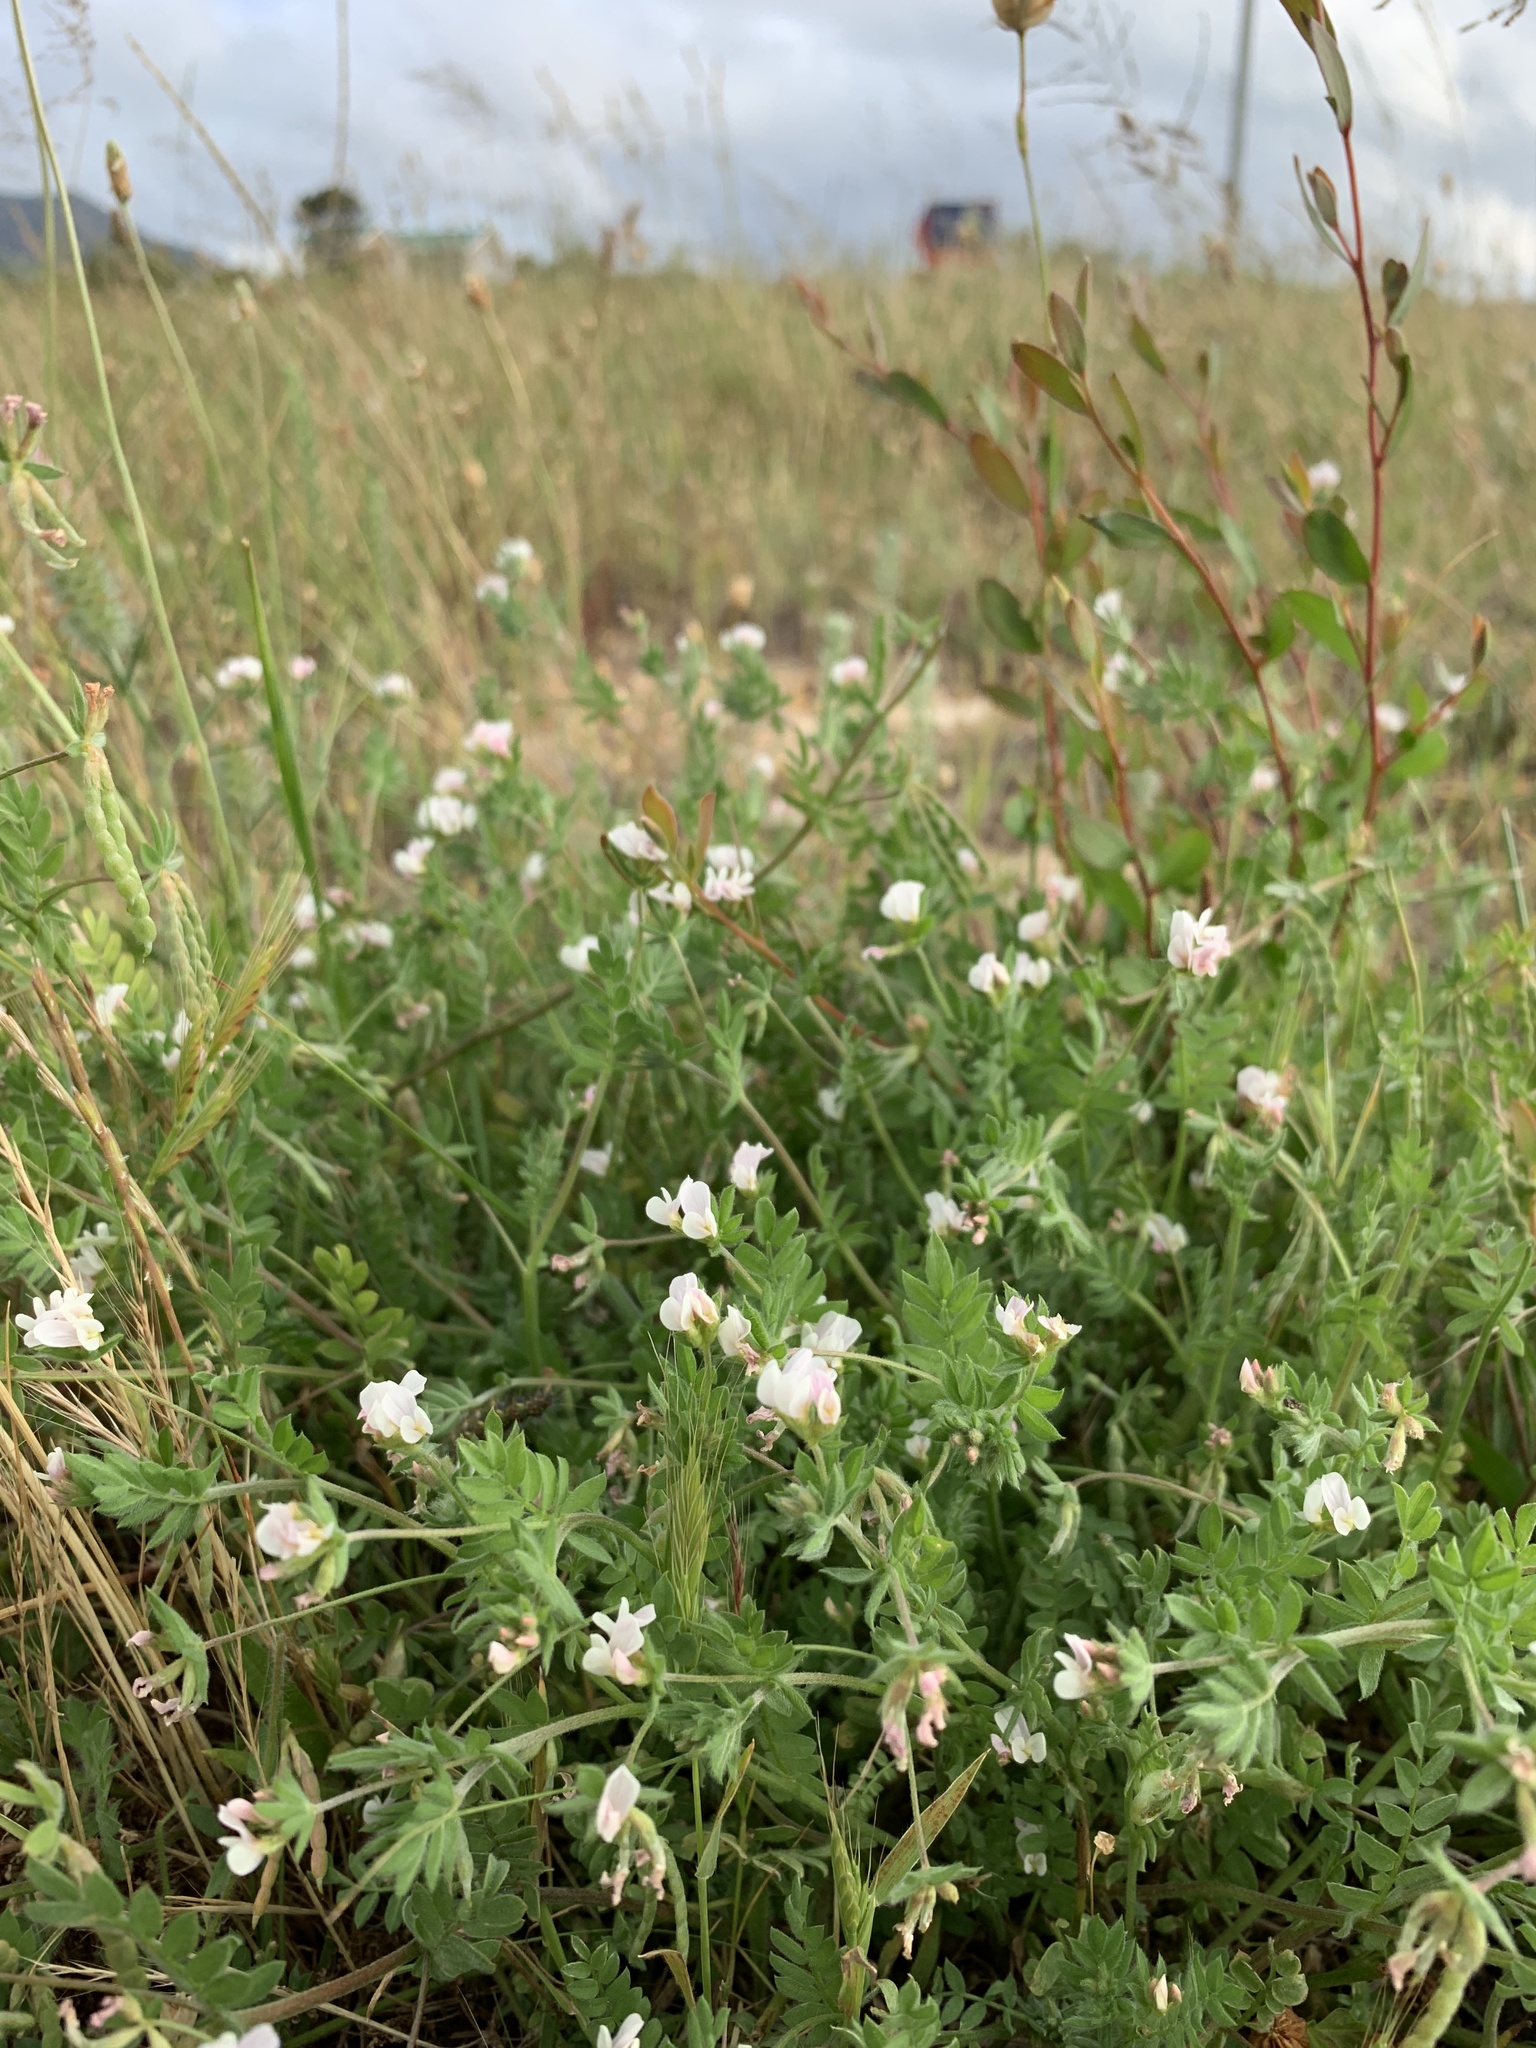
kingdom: Plantae
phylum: Tracheophyta
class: Magnoliopsida
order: Fabales
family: Fabaceae
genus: Ornithopus
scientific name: Ornithopus sativus
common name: Serradella
